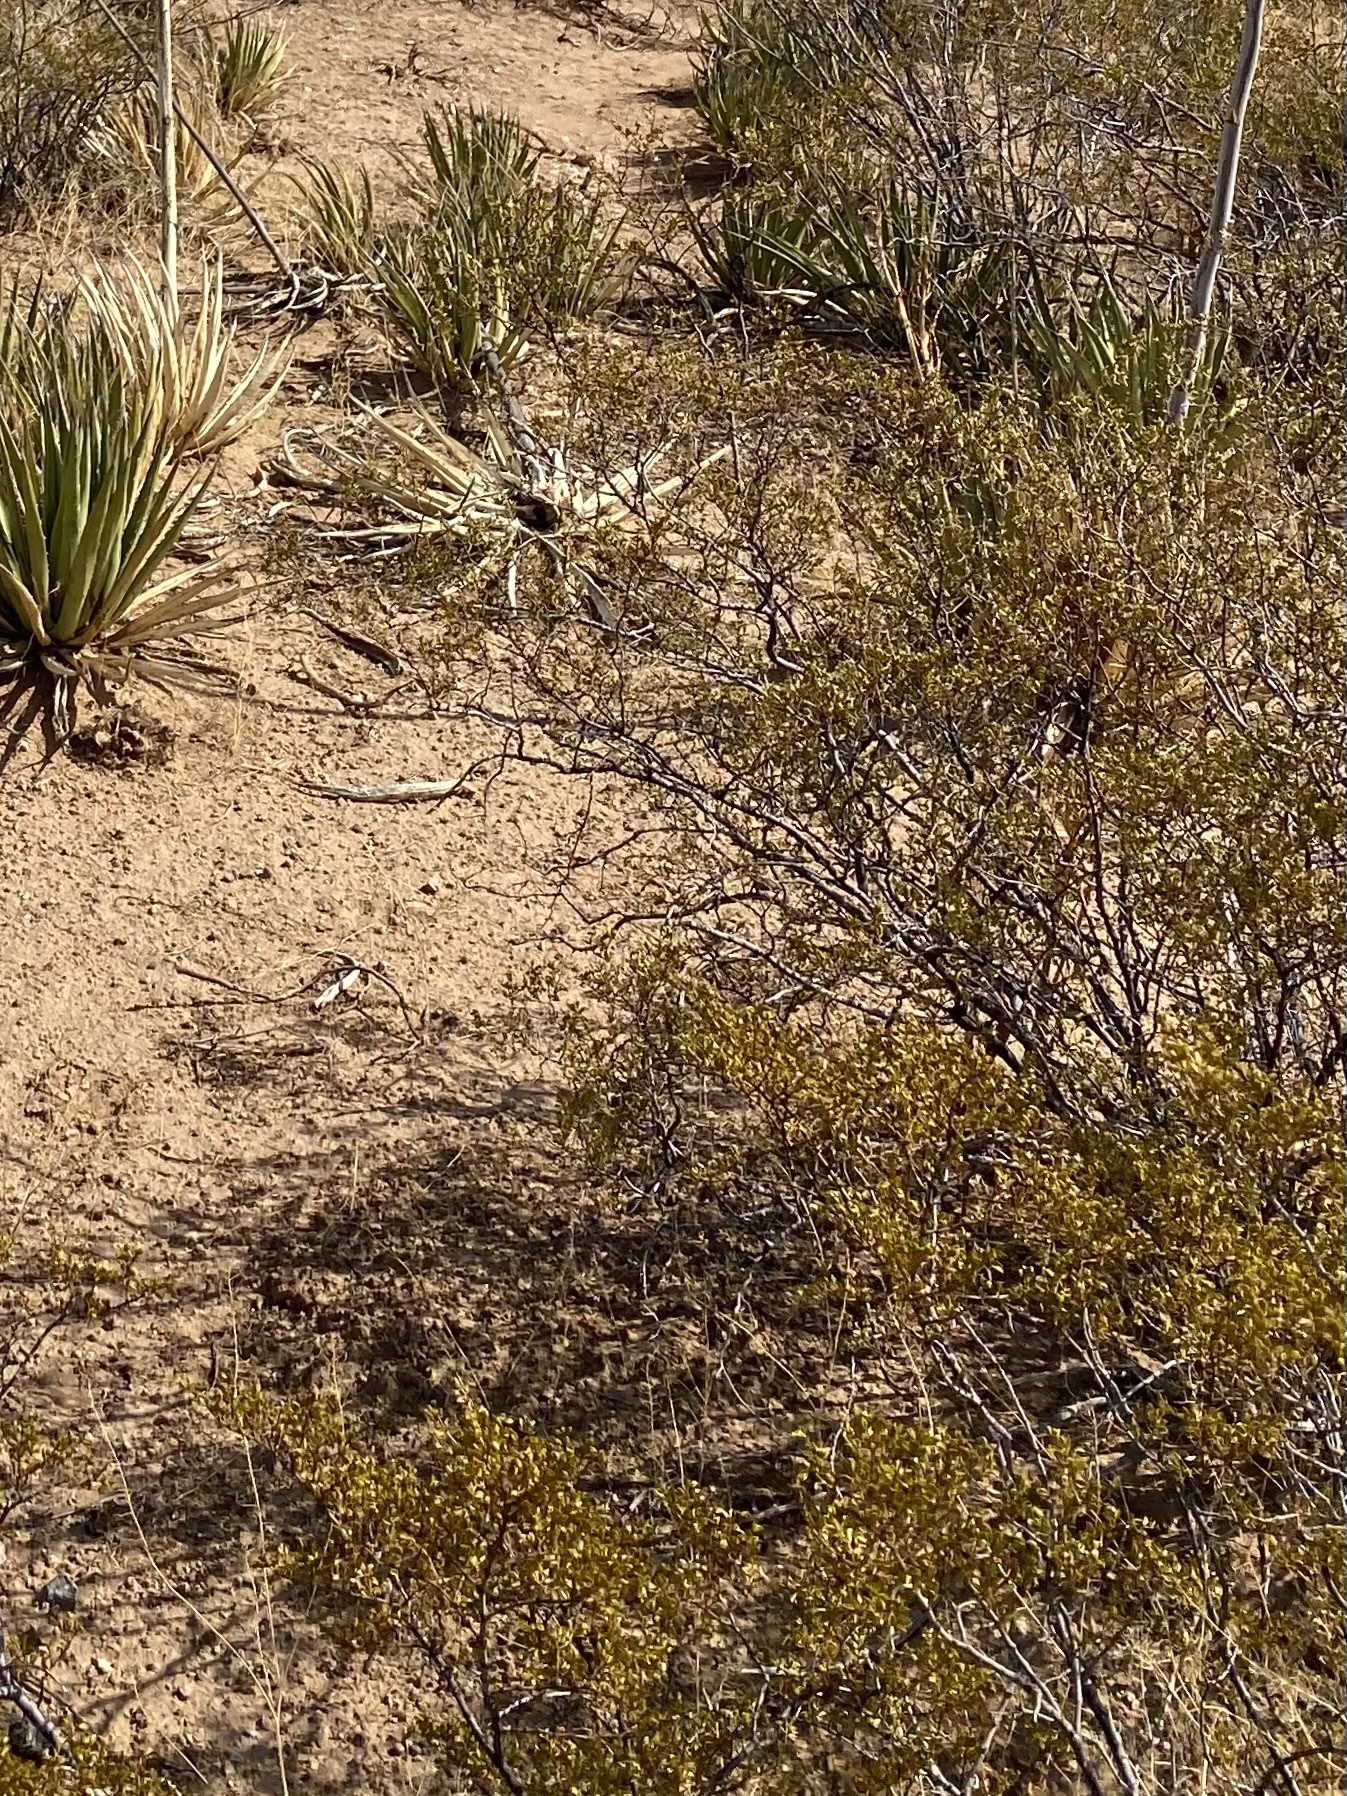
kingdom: Plantae
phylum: Tracheophyta
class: Magnoliopsida
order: Zygophyllales
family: Zygophyllaceae
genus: Larrea
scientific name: Larrea tridentata
